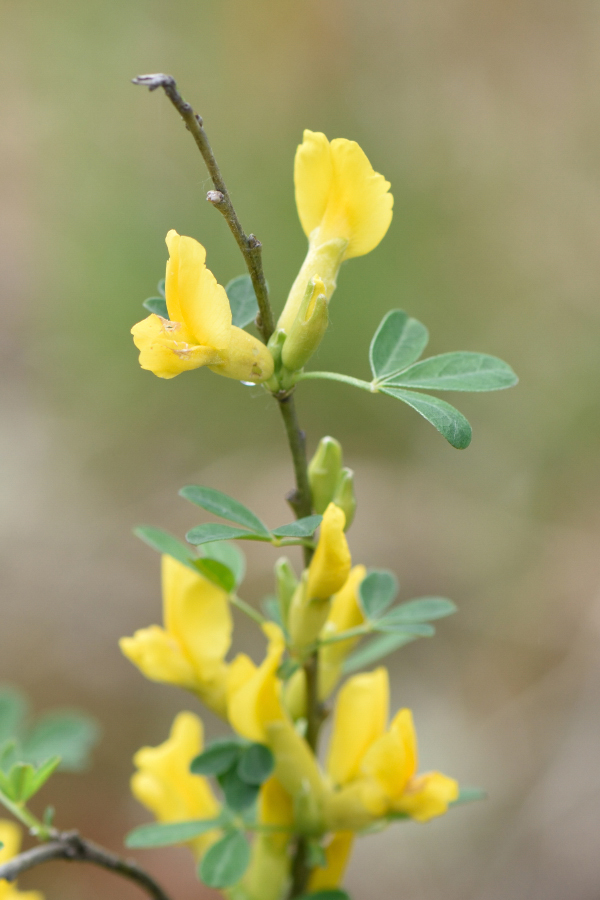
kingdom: Plantae
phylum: Tracheophyta
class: Magnoliopsida
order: Fabales
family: Fabaceae
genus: Chamaecytisus
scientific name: Chamaecytisus ruthenicus
